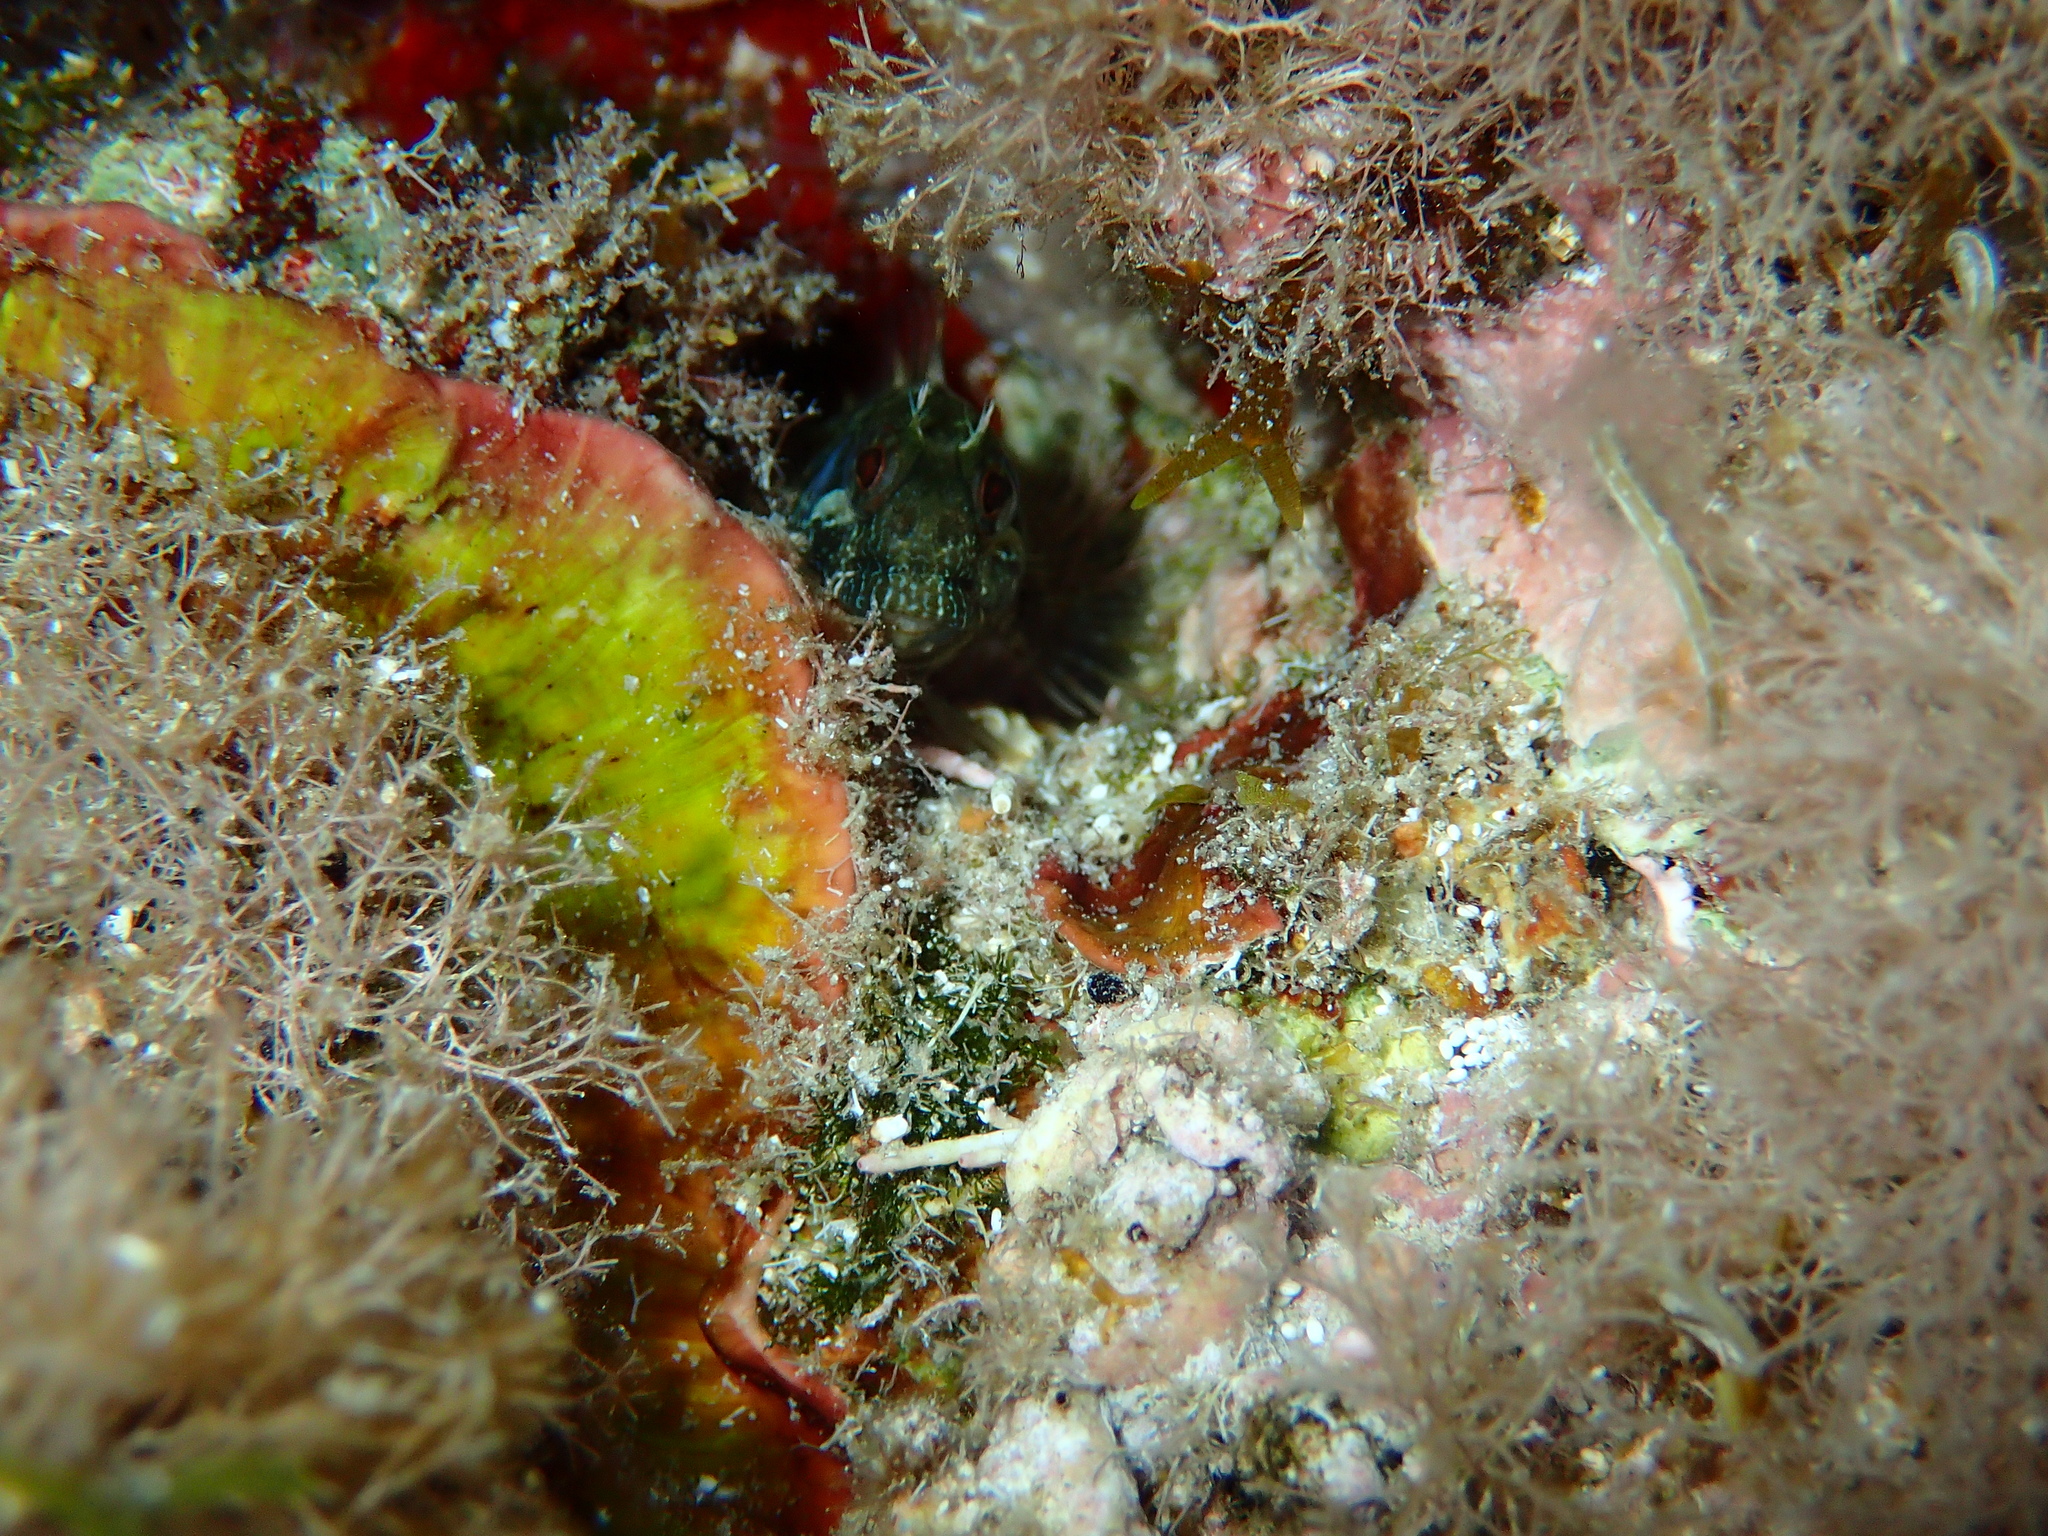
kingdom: Animalia
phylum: Chordata
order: Perciformes
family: Blenniidae
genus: Parablennius
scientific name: Parablennius incognitus
